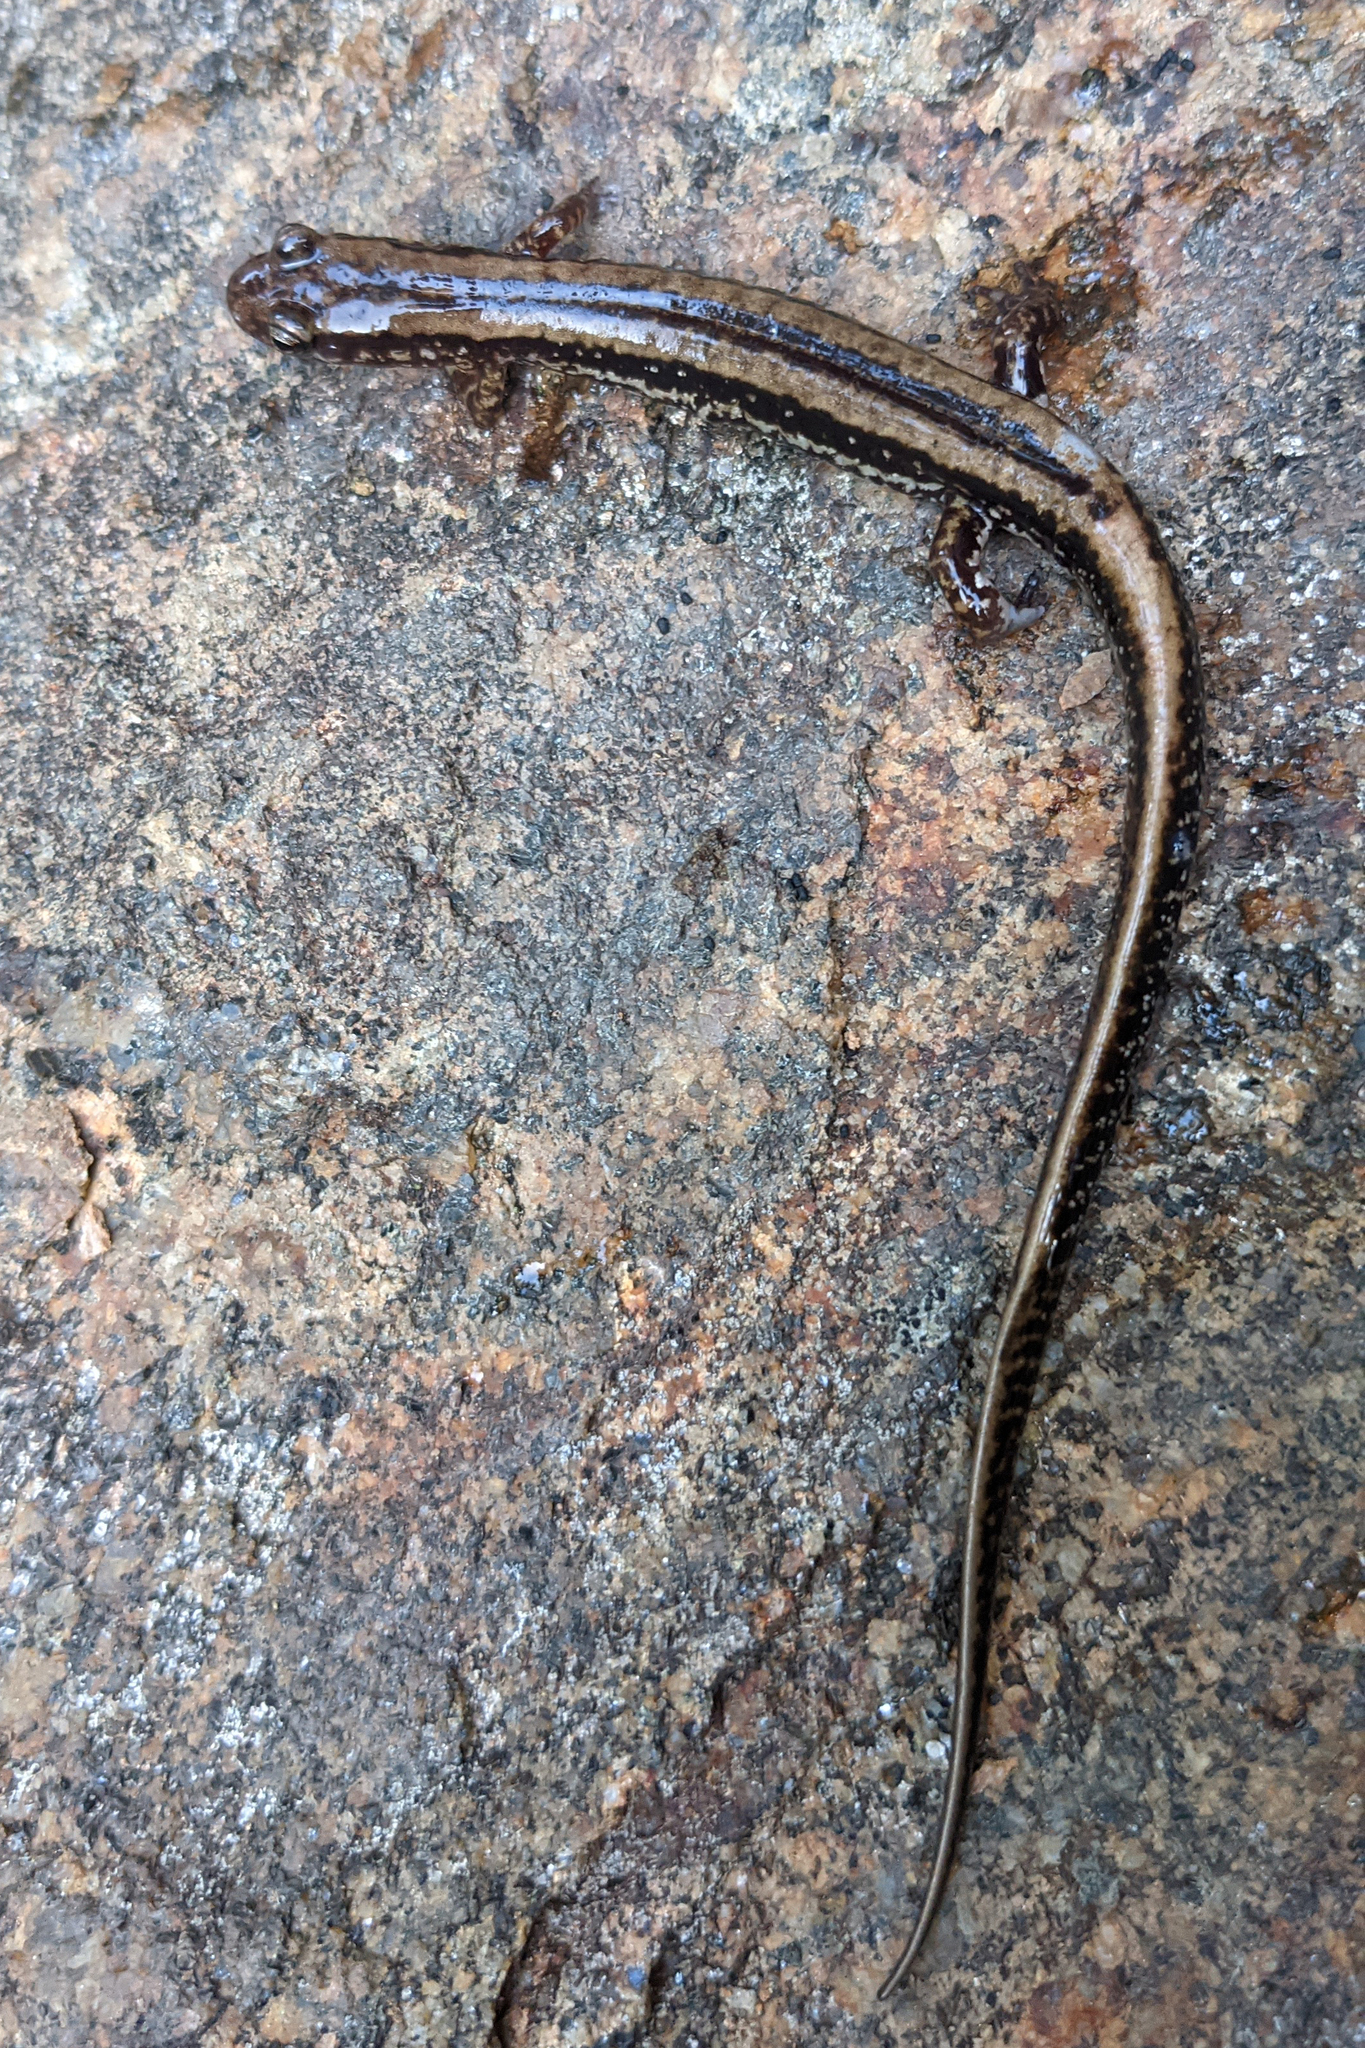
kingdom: Animalia
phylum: Chordata
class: Amphibia
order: Caudata
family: Plethodontidae
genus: Eurycea
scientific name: Eurycea guttolineata
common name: Three-lined salamander
